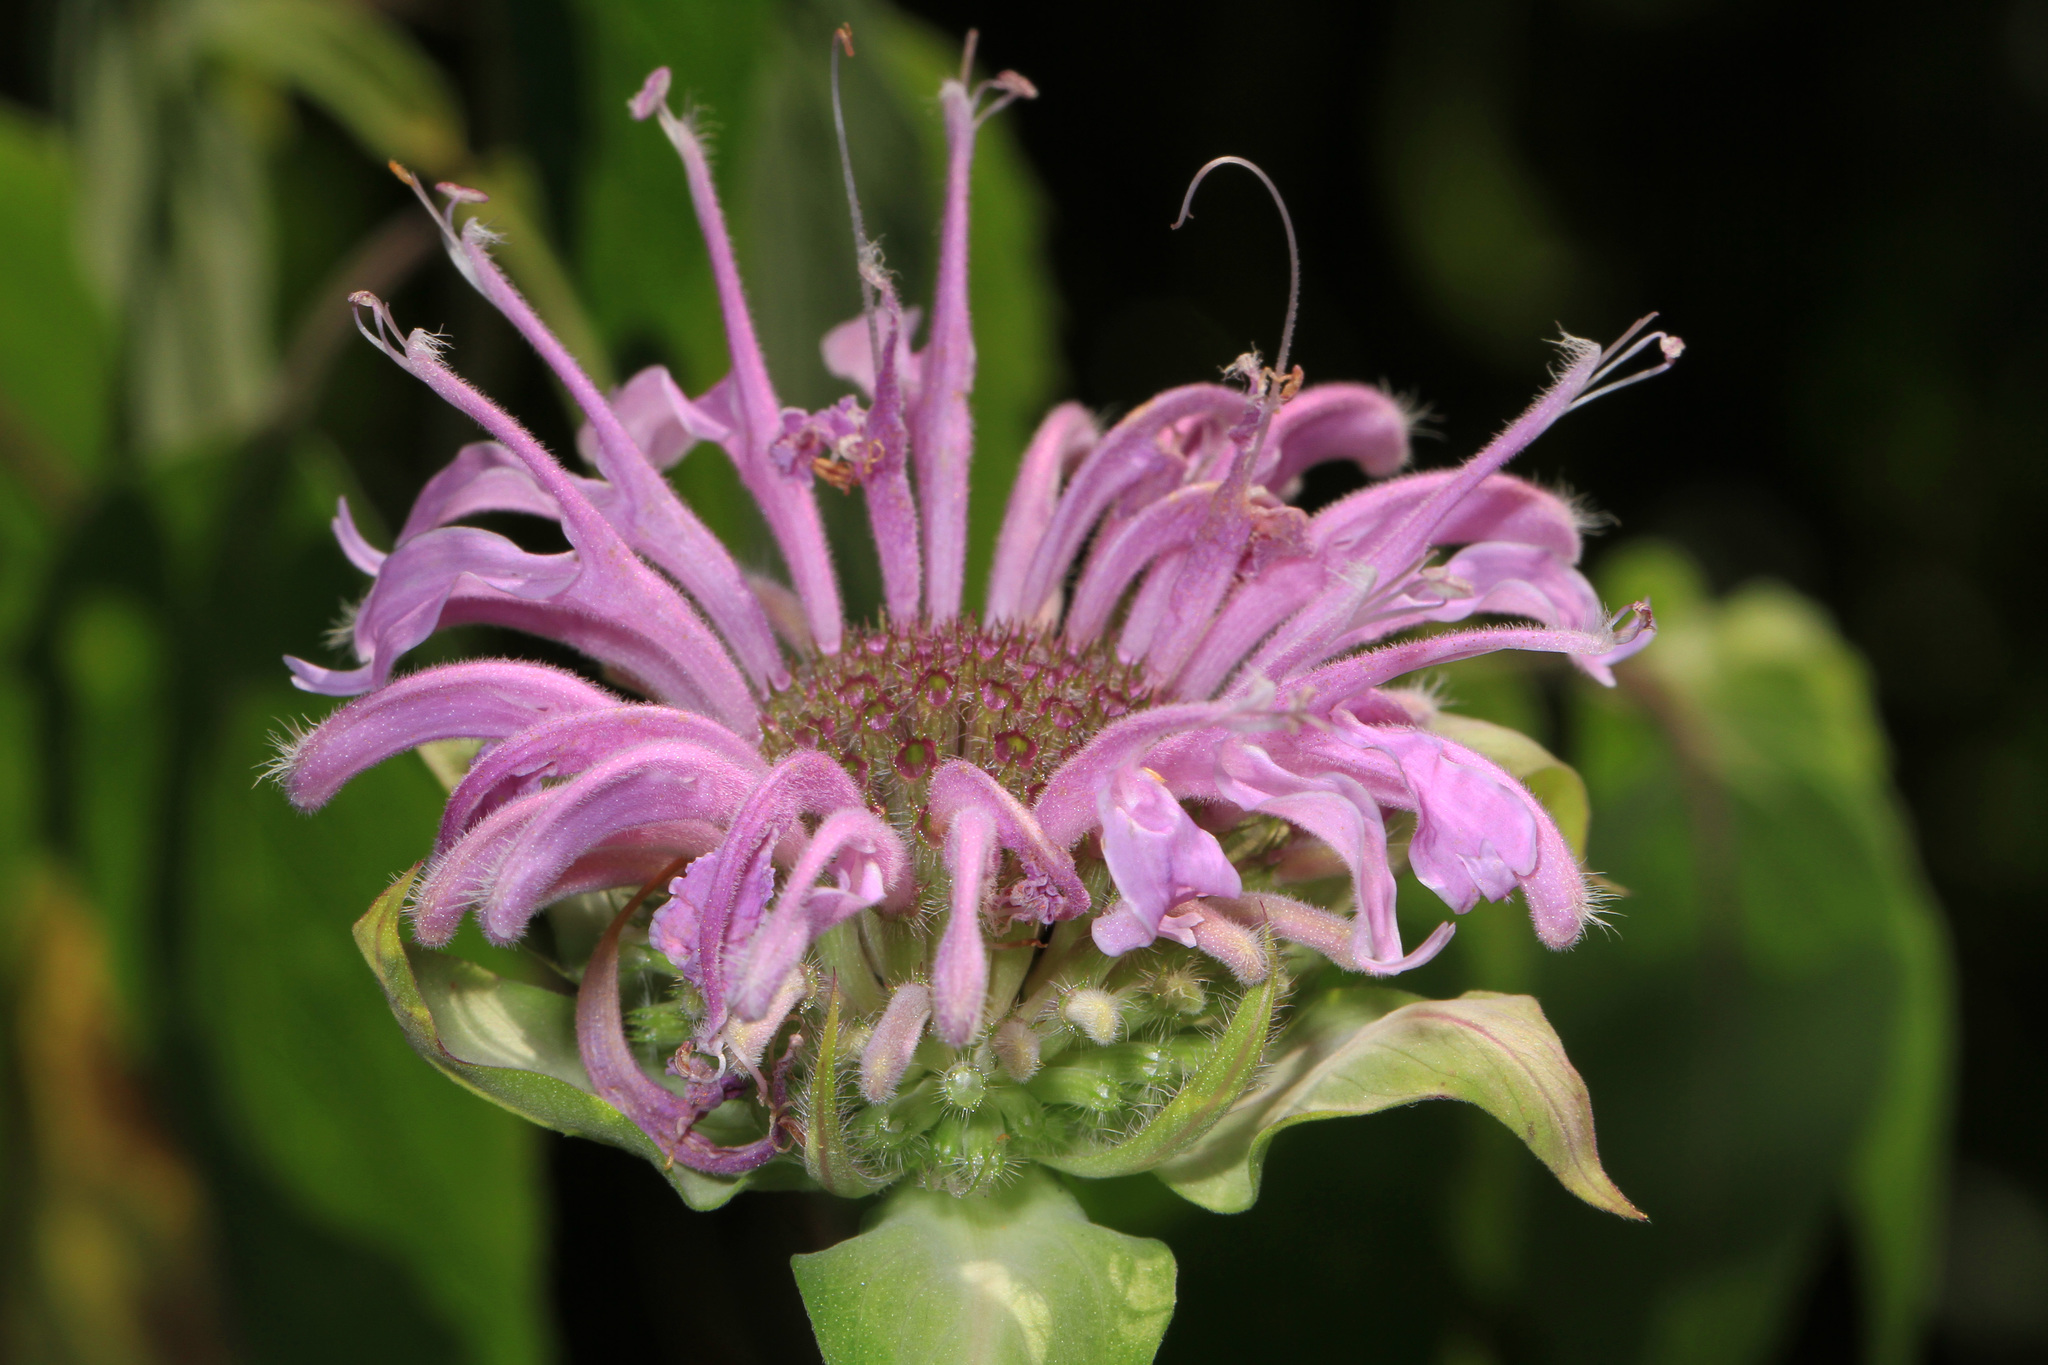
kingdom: Plantae
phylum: Tracheophyta
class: Magnoliopsida
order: Lamiales
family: Lamiaceae
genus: Monarda
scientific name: Monarda fistulosa
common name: Purple beebalm
